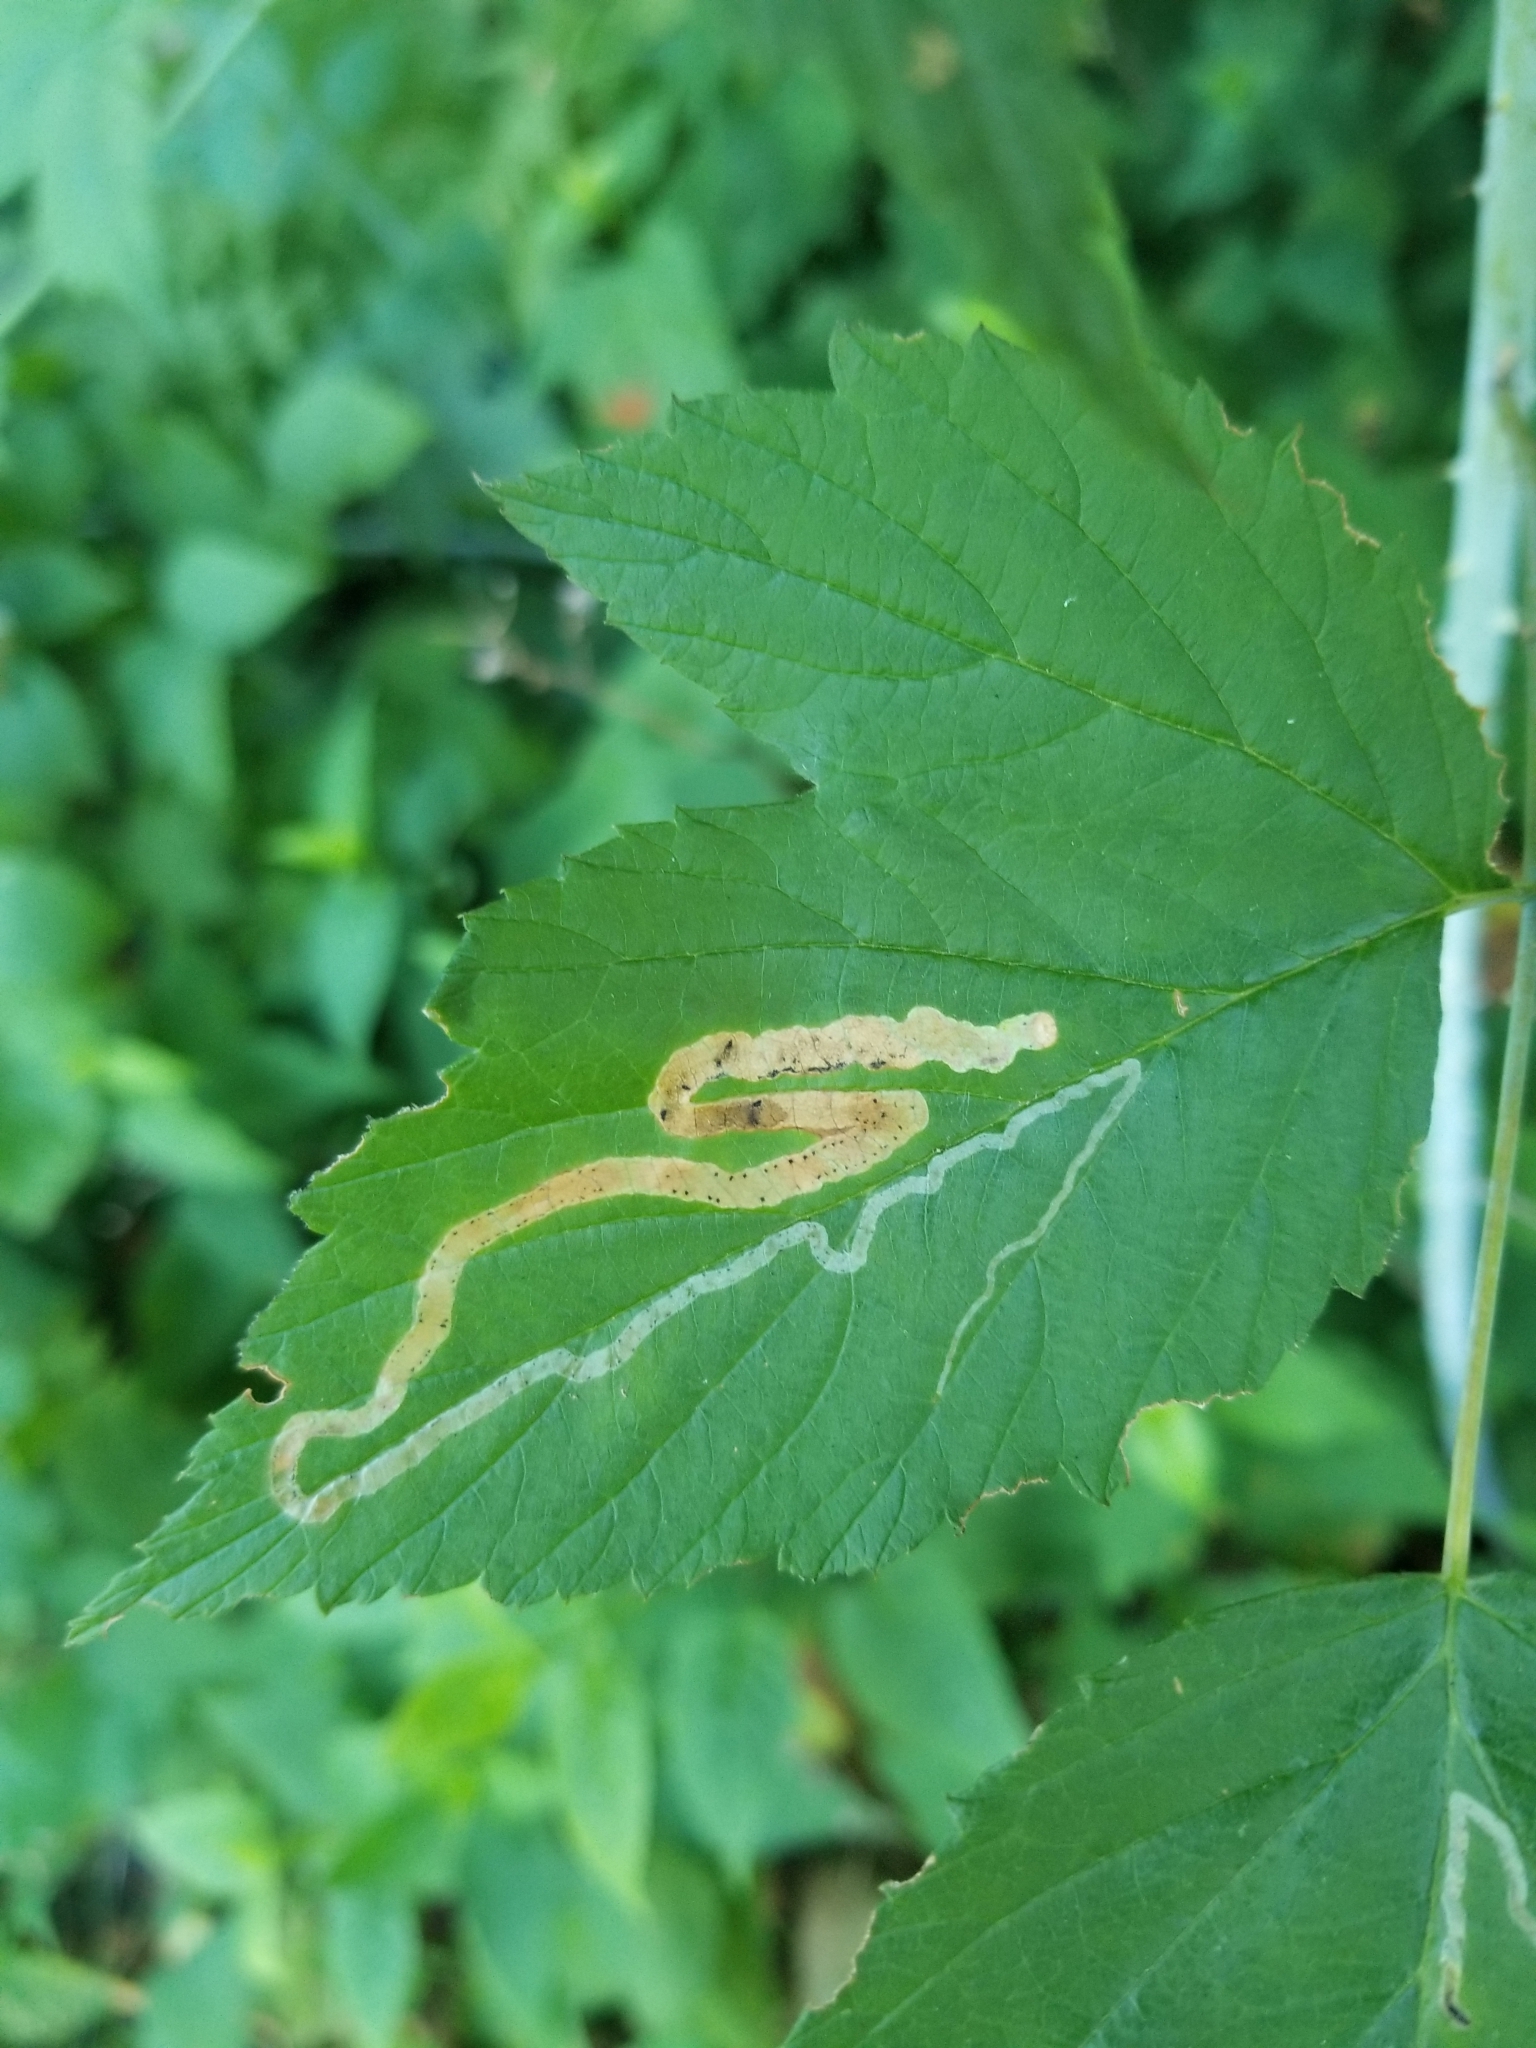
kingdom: Animalia
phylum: Arthropoda
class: Insecta
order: Diptera
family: Agromyzidae
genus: Agromyza
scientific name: Agromyza vockerothi
